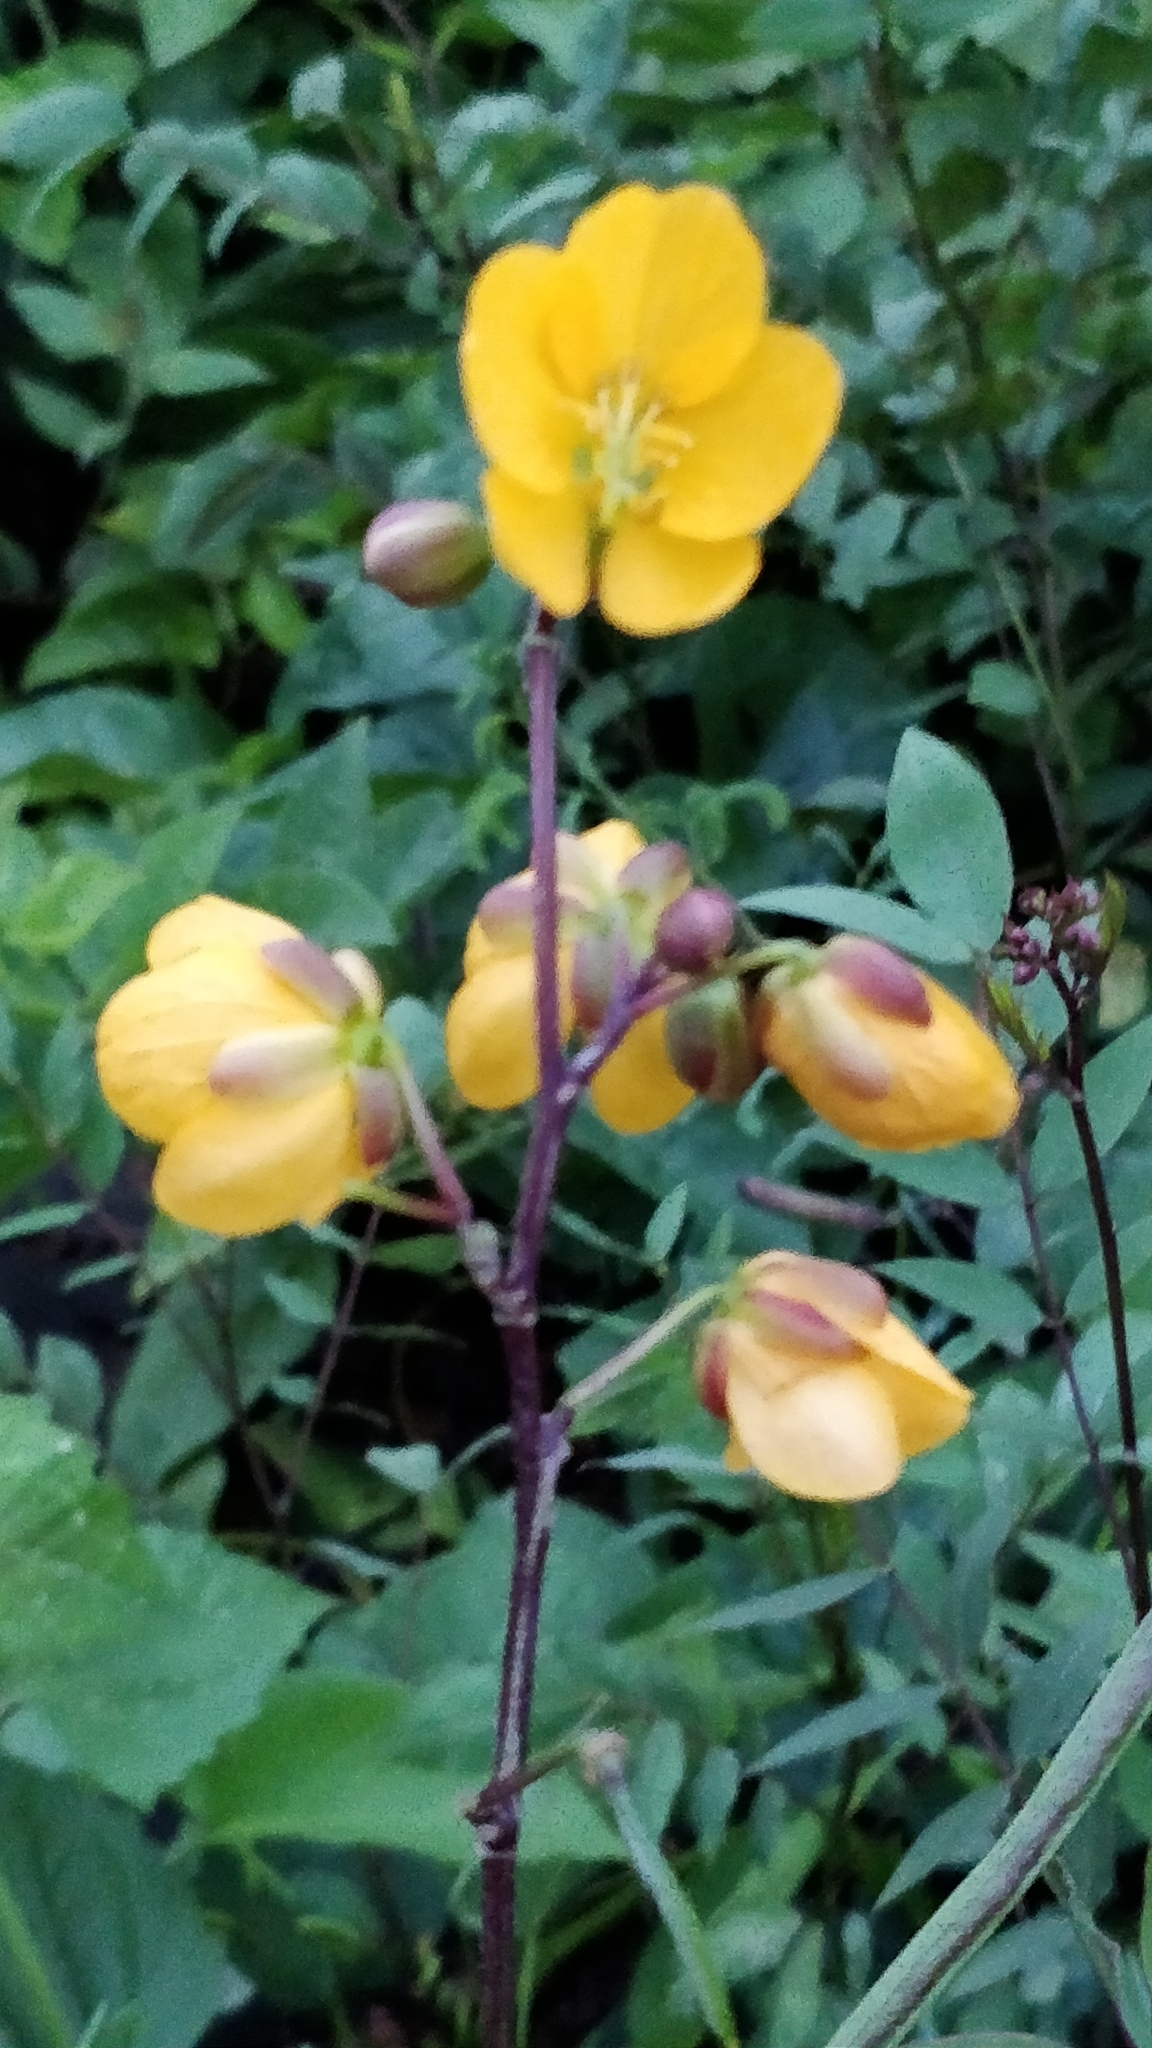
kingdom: Plantae
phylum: Tracheophyta
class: Magnoliopsida
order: Fabales
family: Fabaceae
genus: Senna
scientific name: Senna occidentalis
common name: Septicweed
